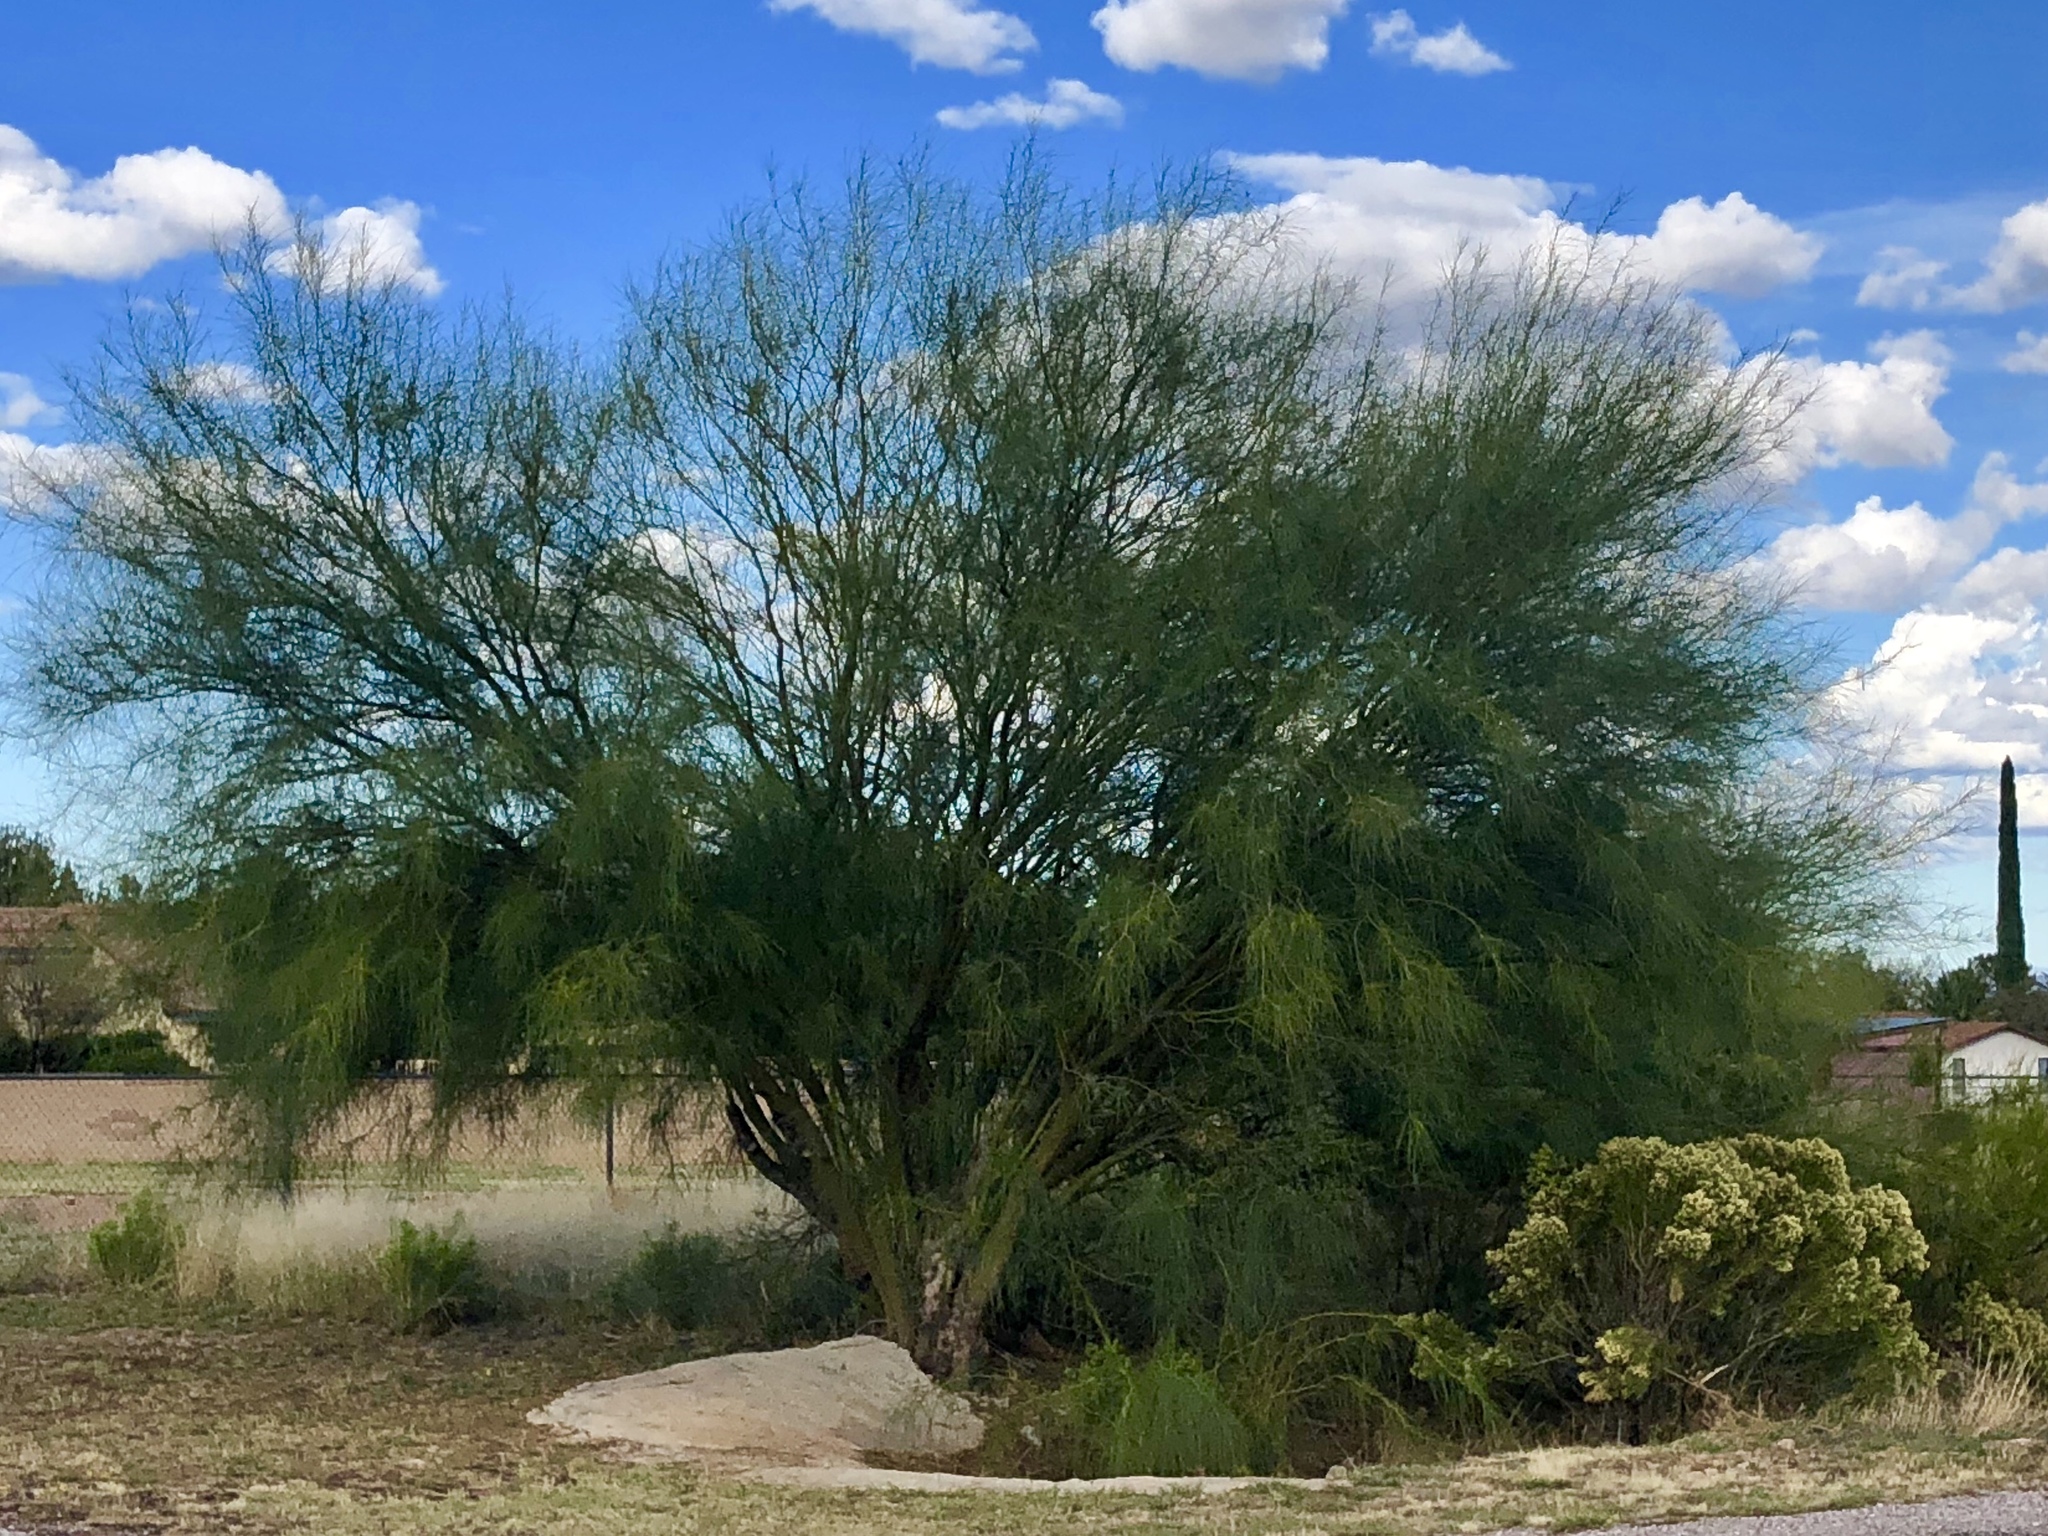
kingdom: Plantae
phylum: Tracheophyta
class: Magnoliopsida
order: Fabales
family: Fabaceae
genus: Parkinsonia
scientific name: Parkinsonia aculeata
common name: Jerusalem thorn
